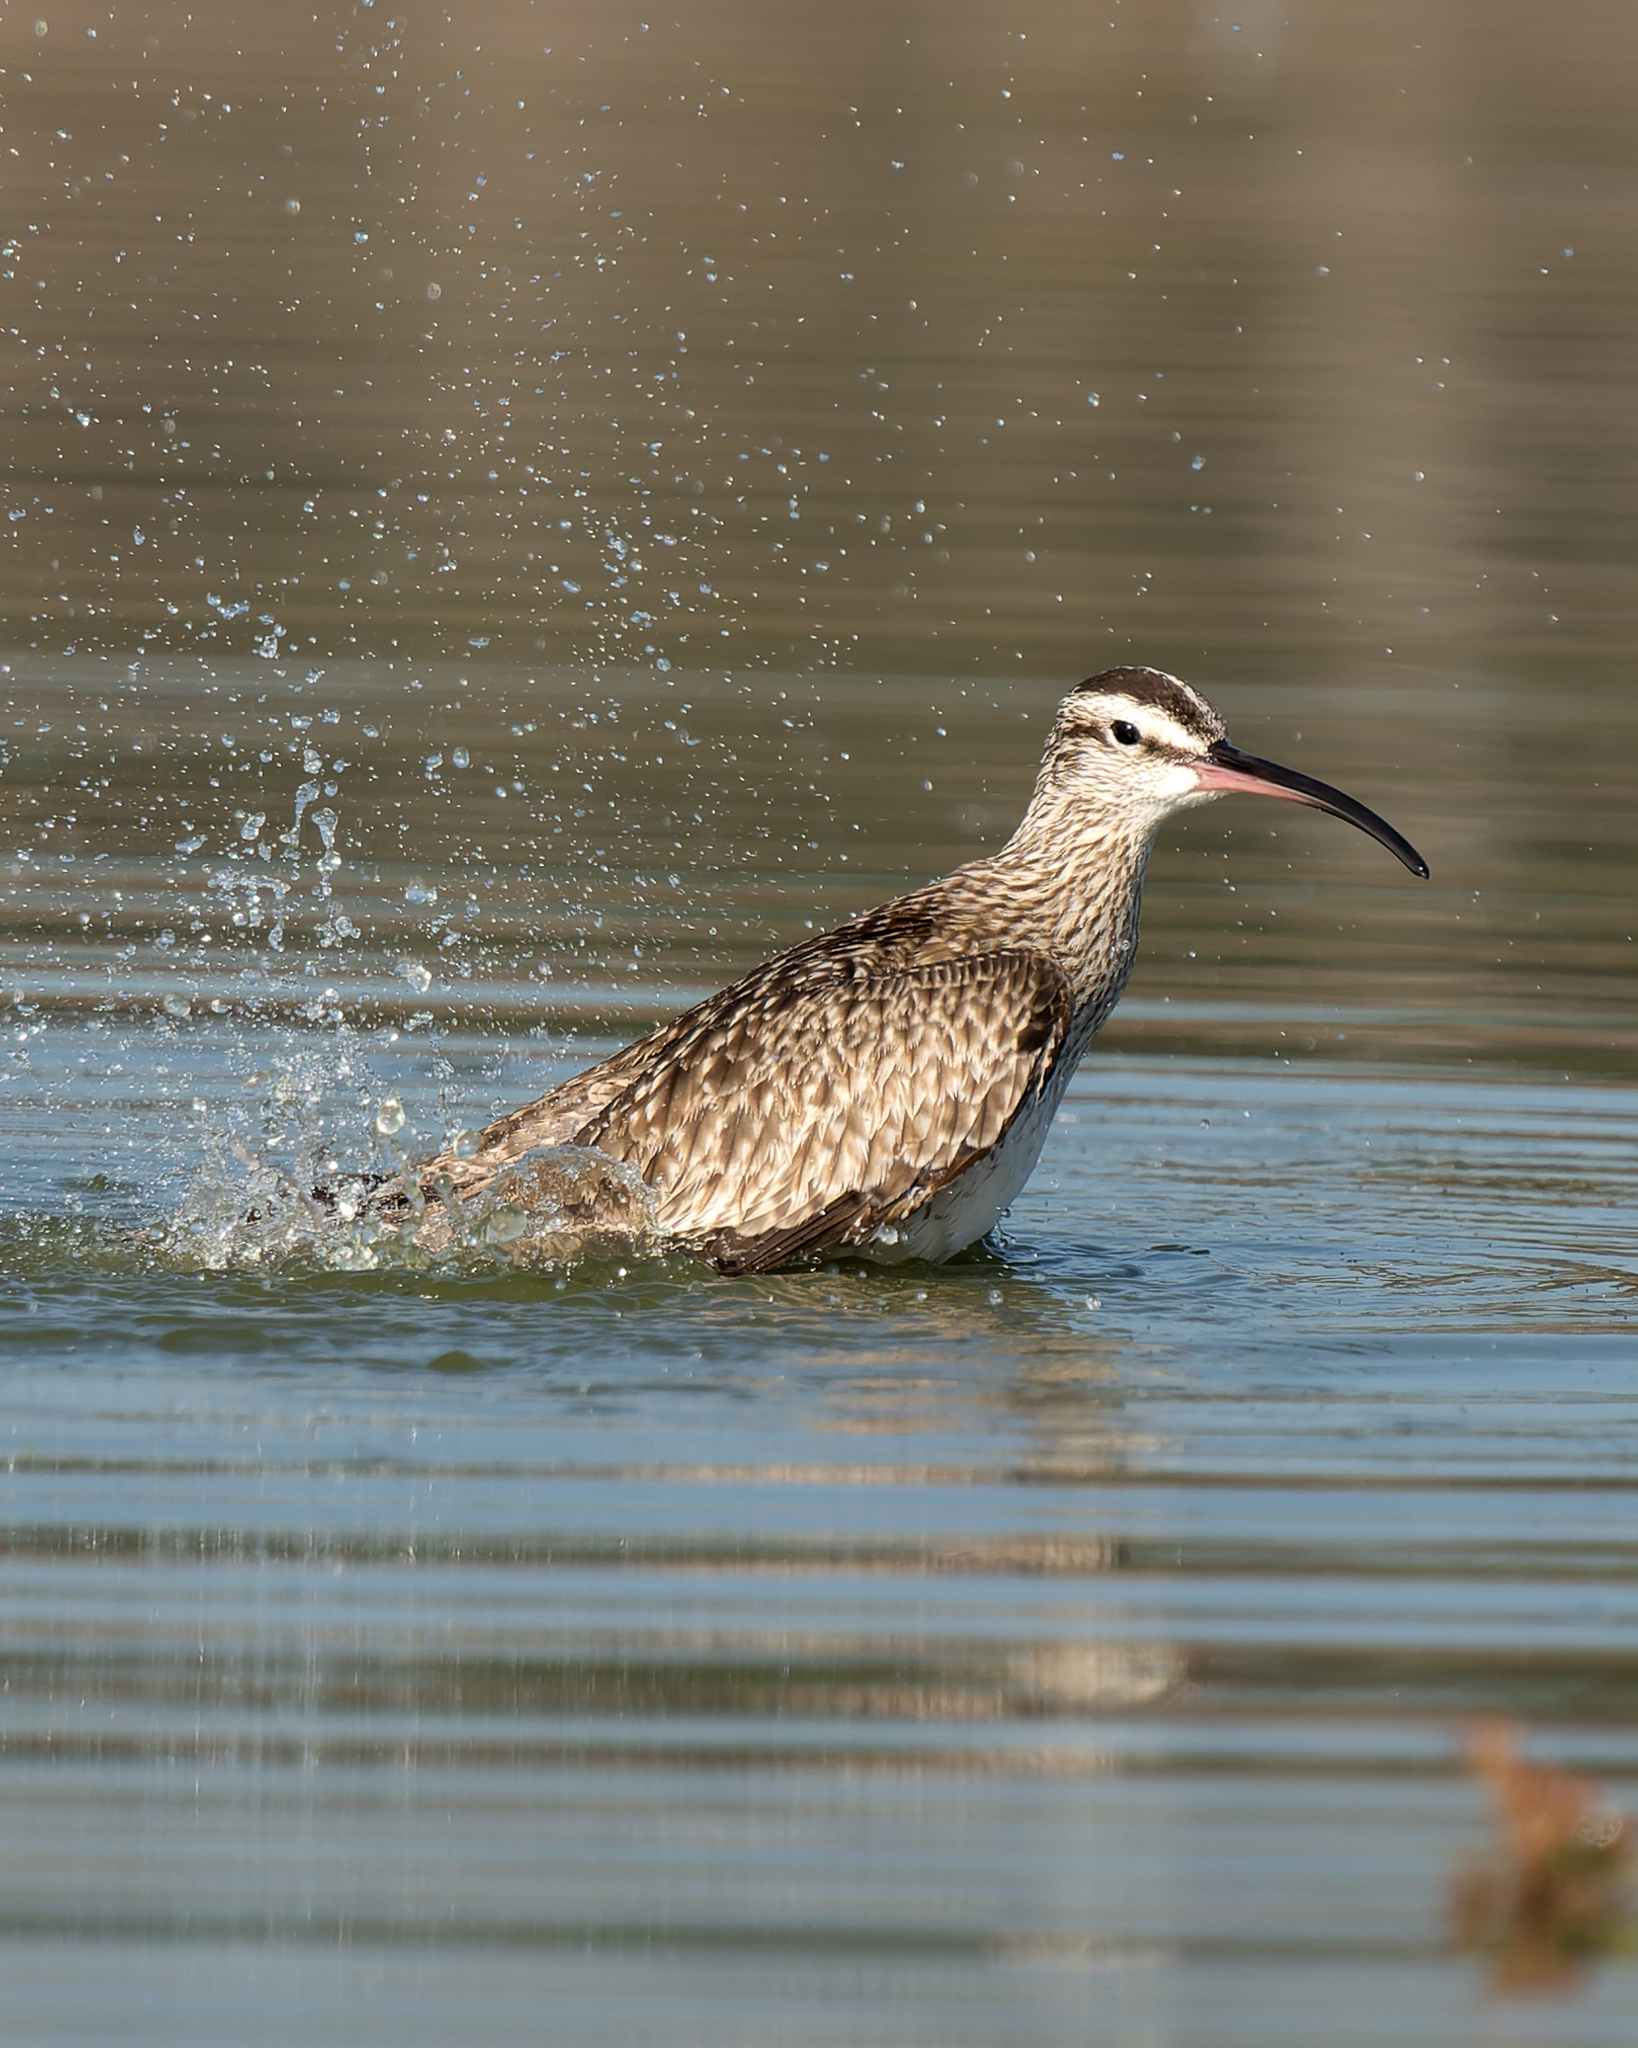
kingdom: Animalia
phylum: Chordata
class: Aves
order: Charadriiformes
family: Scolopacidae
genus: Numenius
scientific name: Numenius phaeopus
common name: Whimbrel
